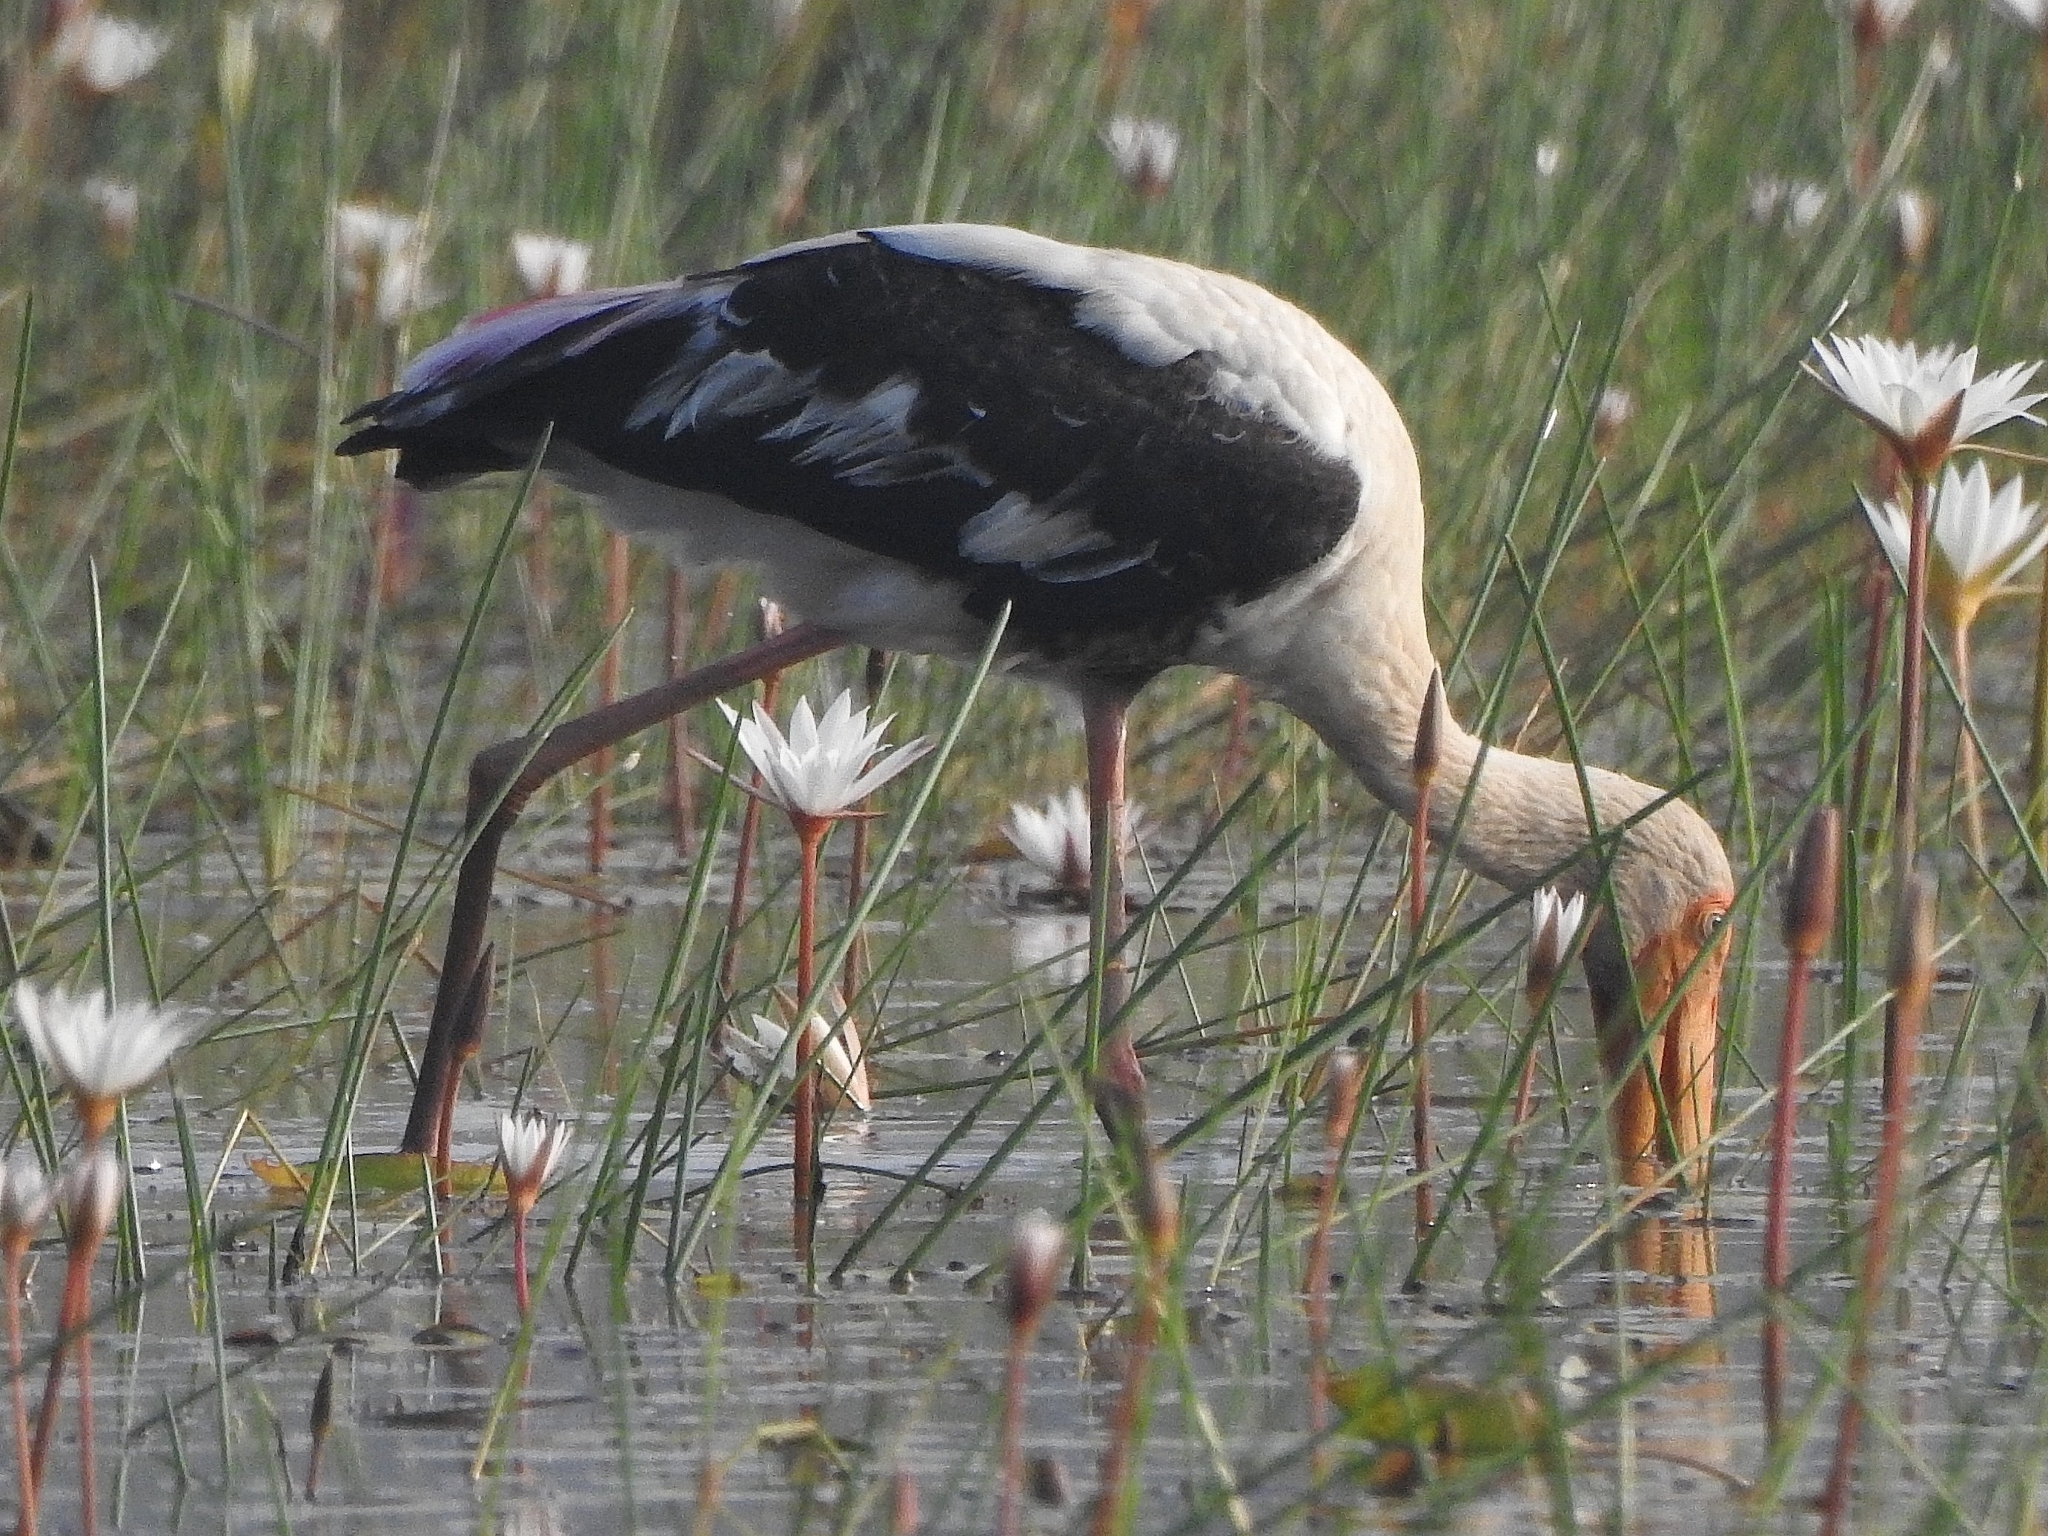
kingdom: Animalia
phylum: Chordata
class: Aves
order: Ciconiiformes
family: Ciconiidae
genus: Mycteria
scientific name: Mycteria leucocephala
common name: Painted stork
